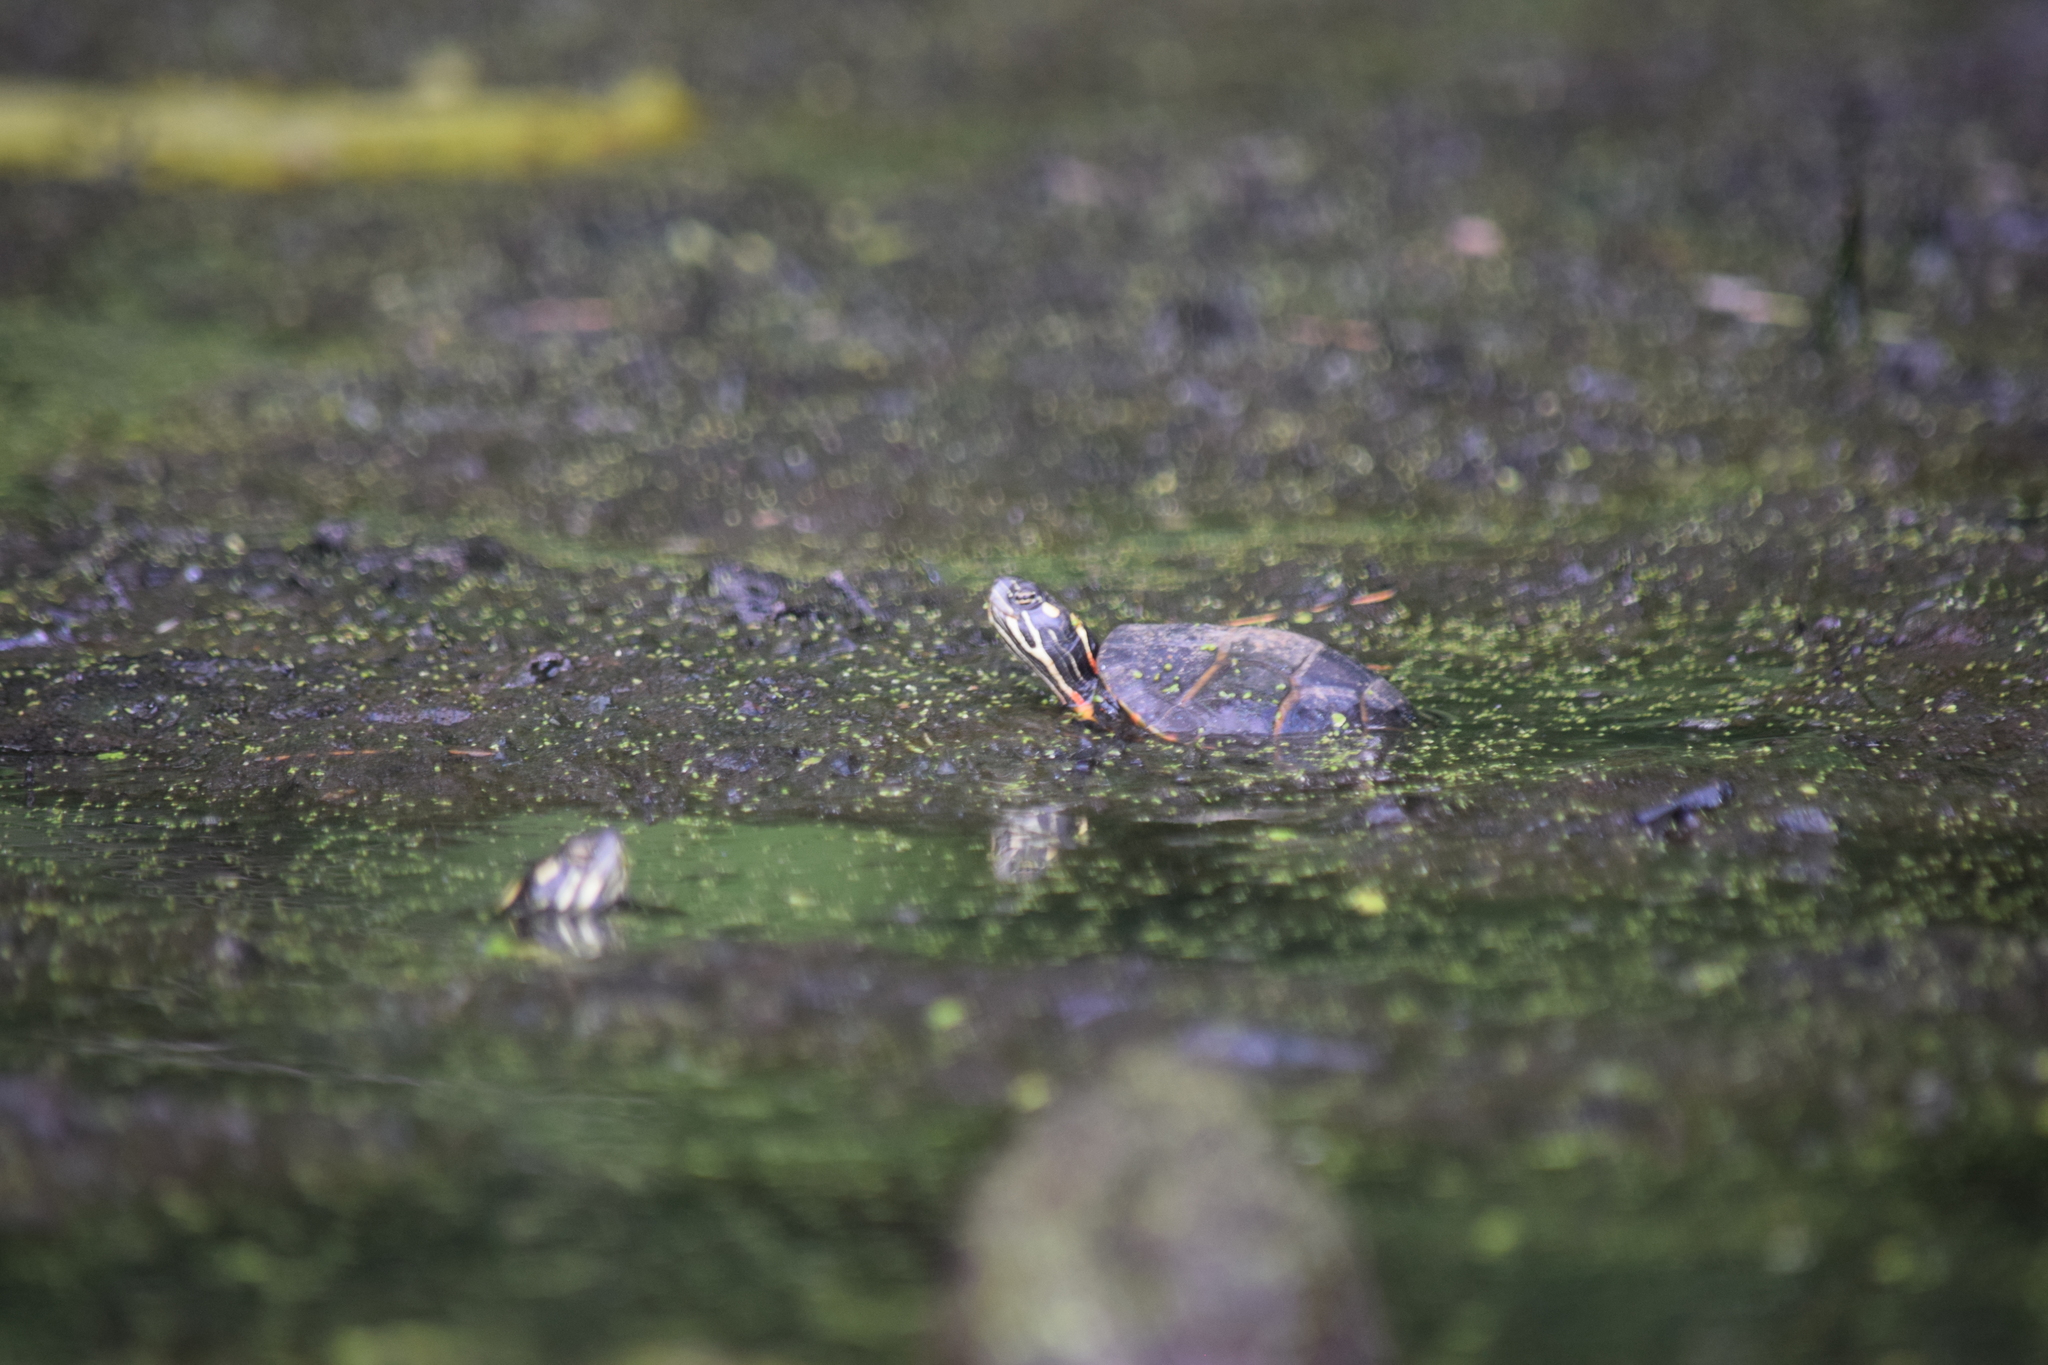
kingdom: Animalia
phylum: Chordata
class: Testudines
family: Emydidae
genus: Chrysemys
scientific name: Chrysemys picta
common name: Painted turtle
